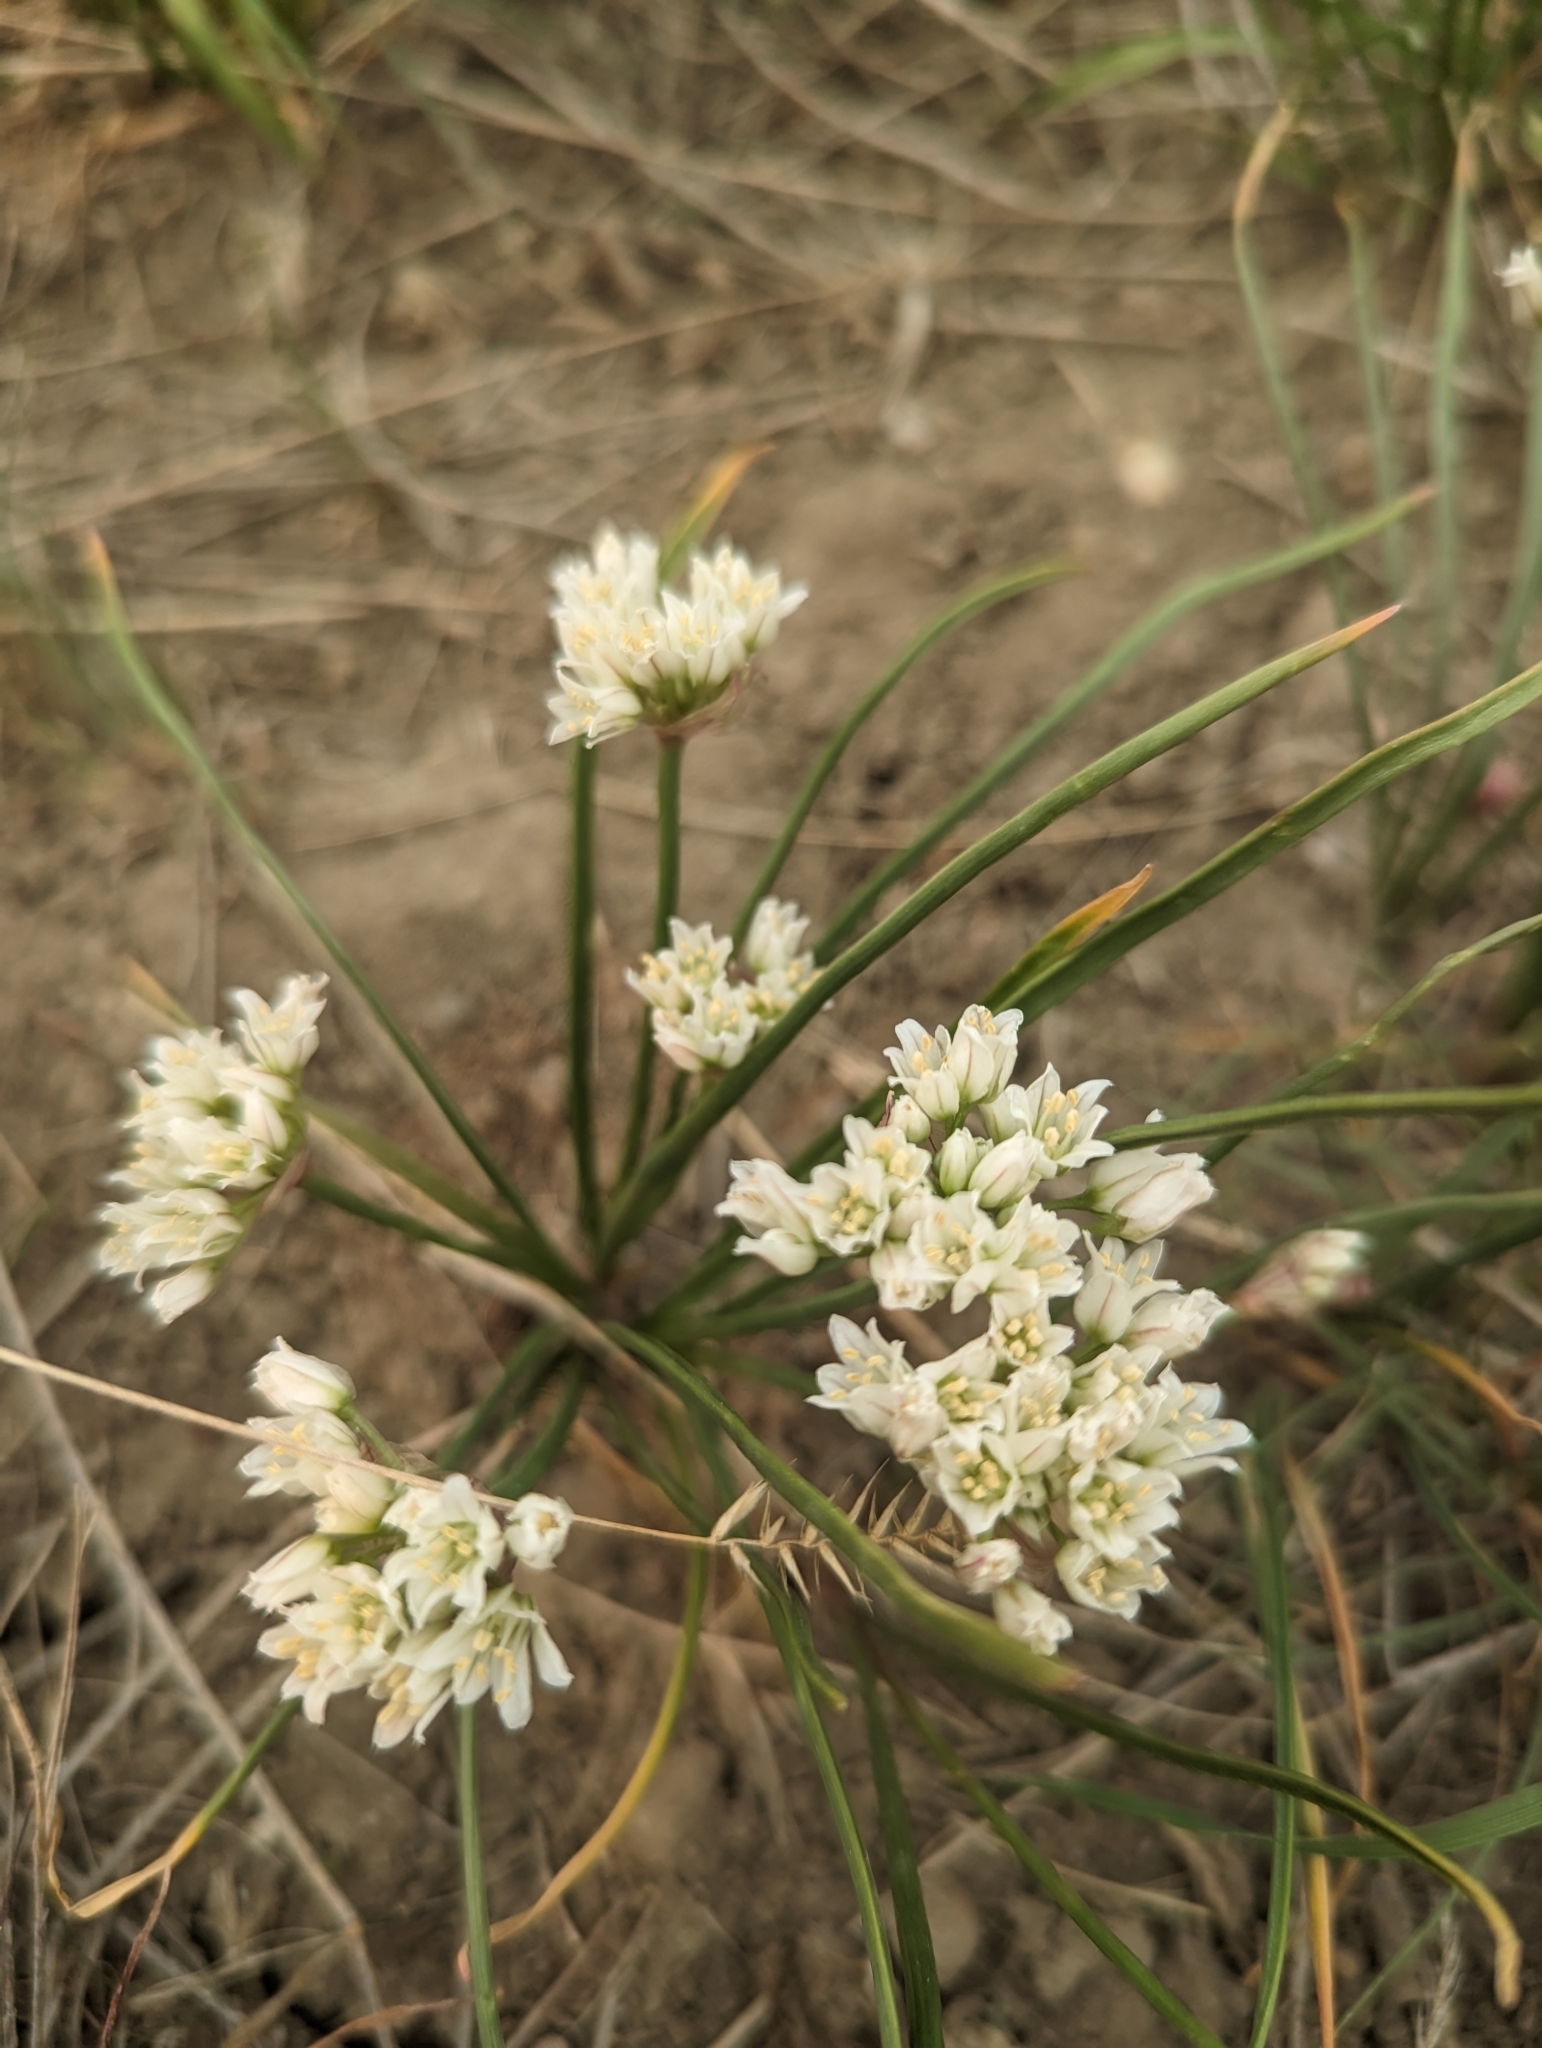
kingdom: Plantae
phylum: Tracheophyta
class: Liliopsida
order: Asparagales
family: Amaryllidaceae
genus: Allium
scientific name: Allium textile
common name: Prairie onion
